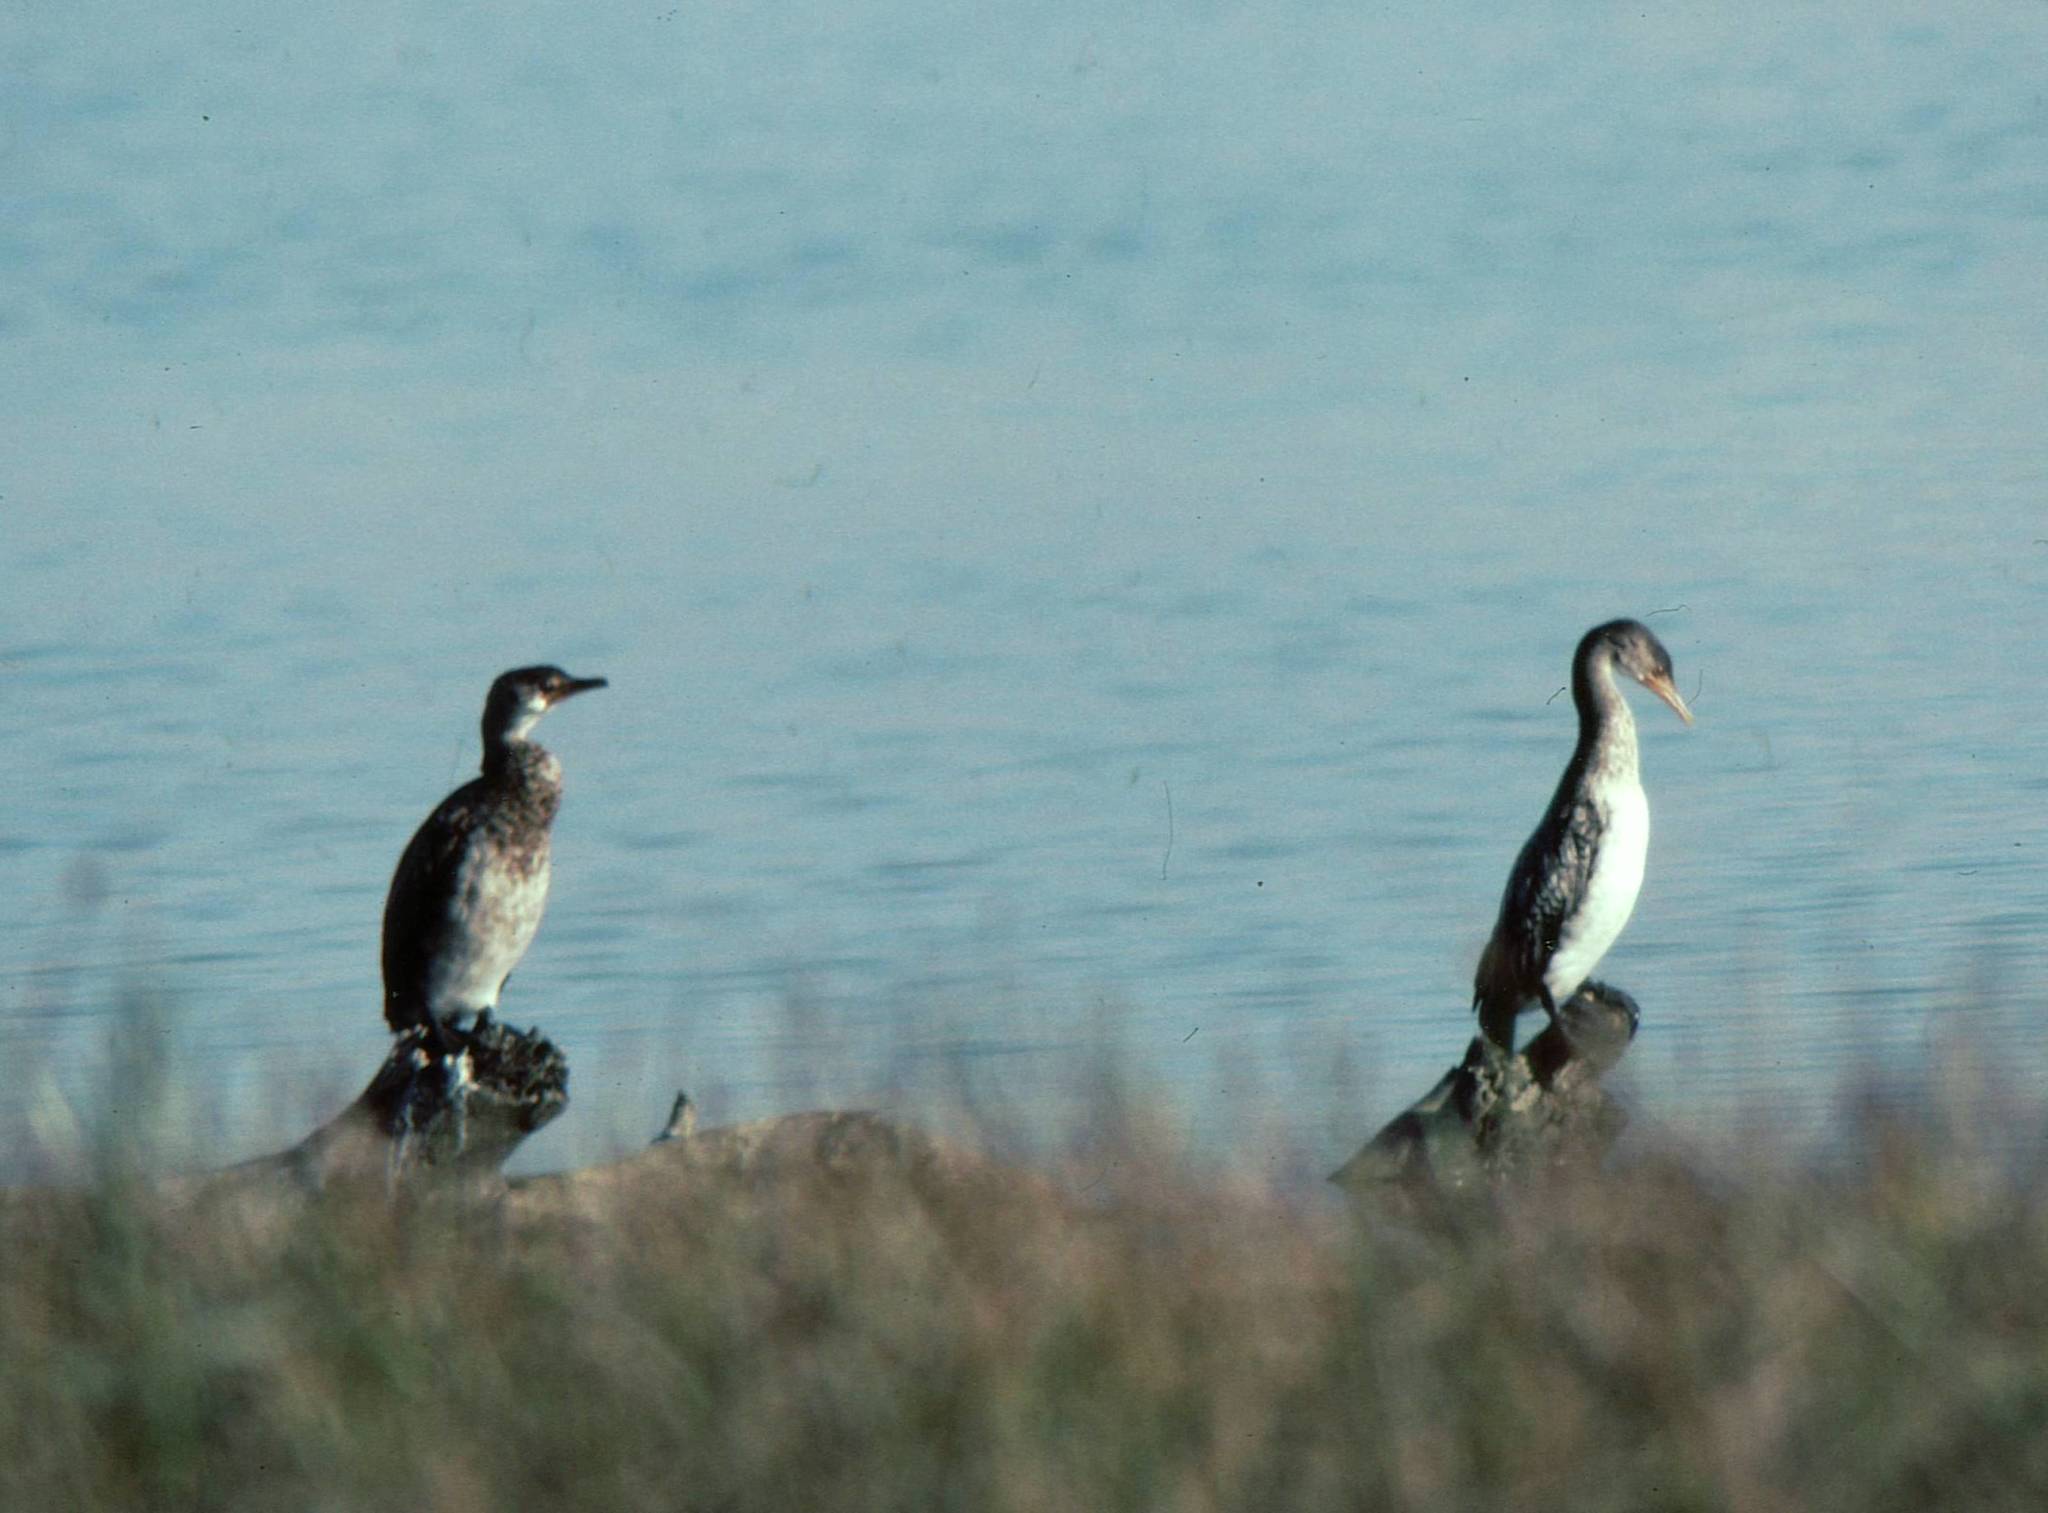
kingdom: Animalia
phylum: Chordata
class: Aves
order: Suliformes
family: Phalacrocoracidae
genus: Microcarbo
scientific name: Microcarbo africanus
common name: Long-tailed cormorant
